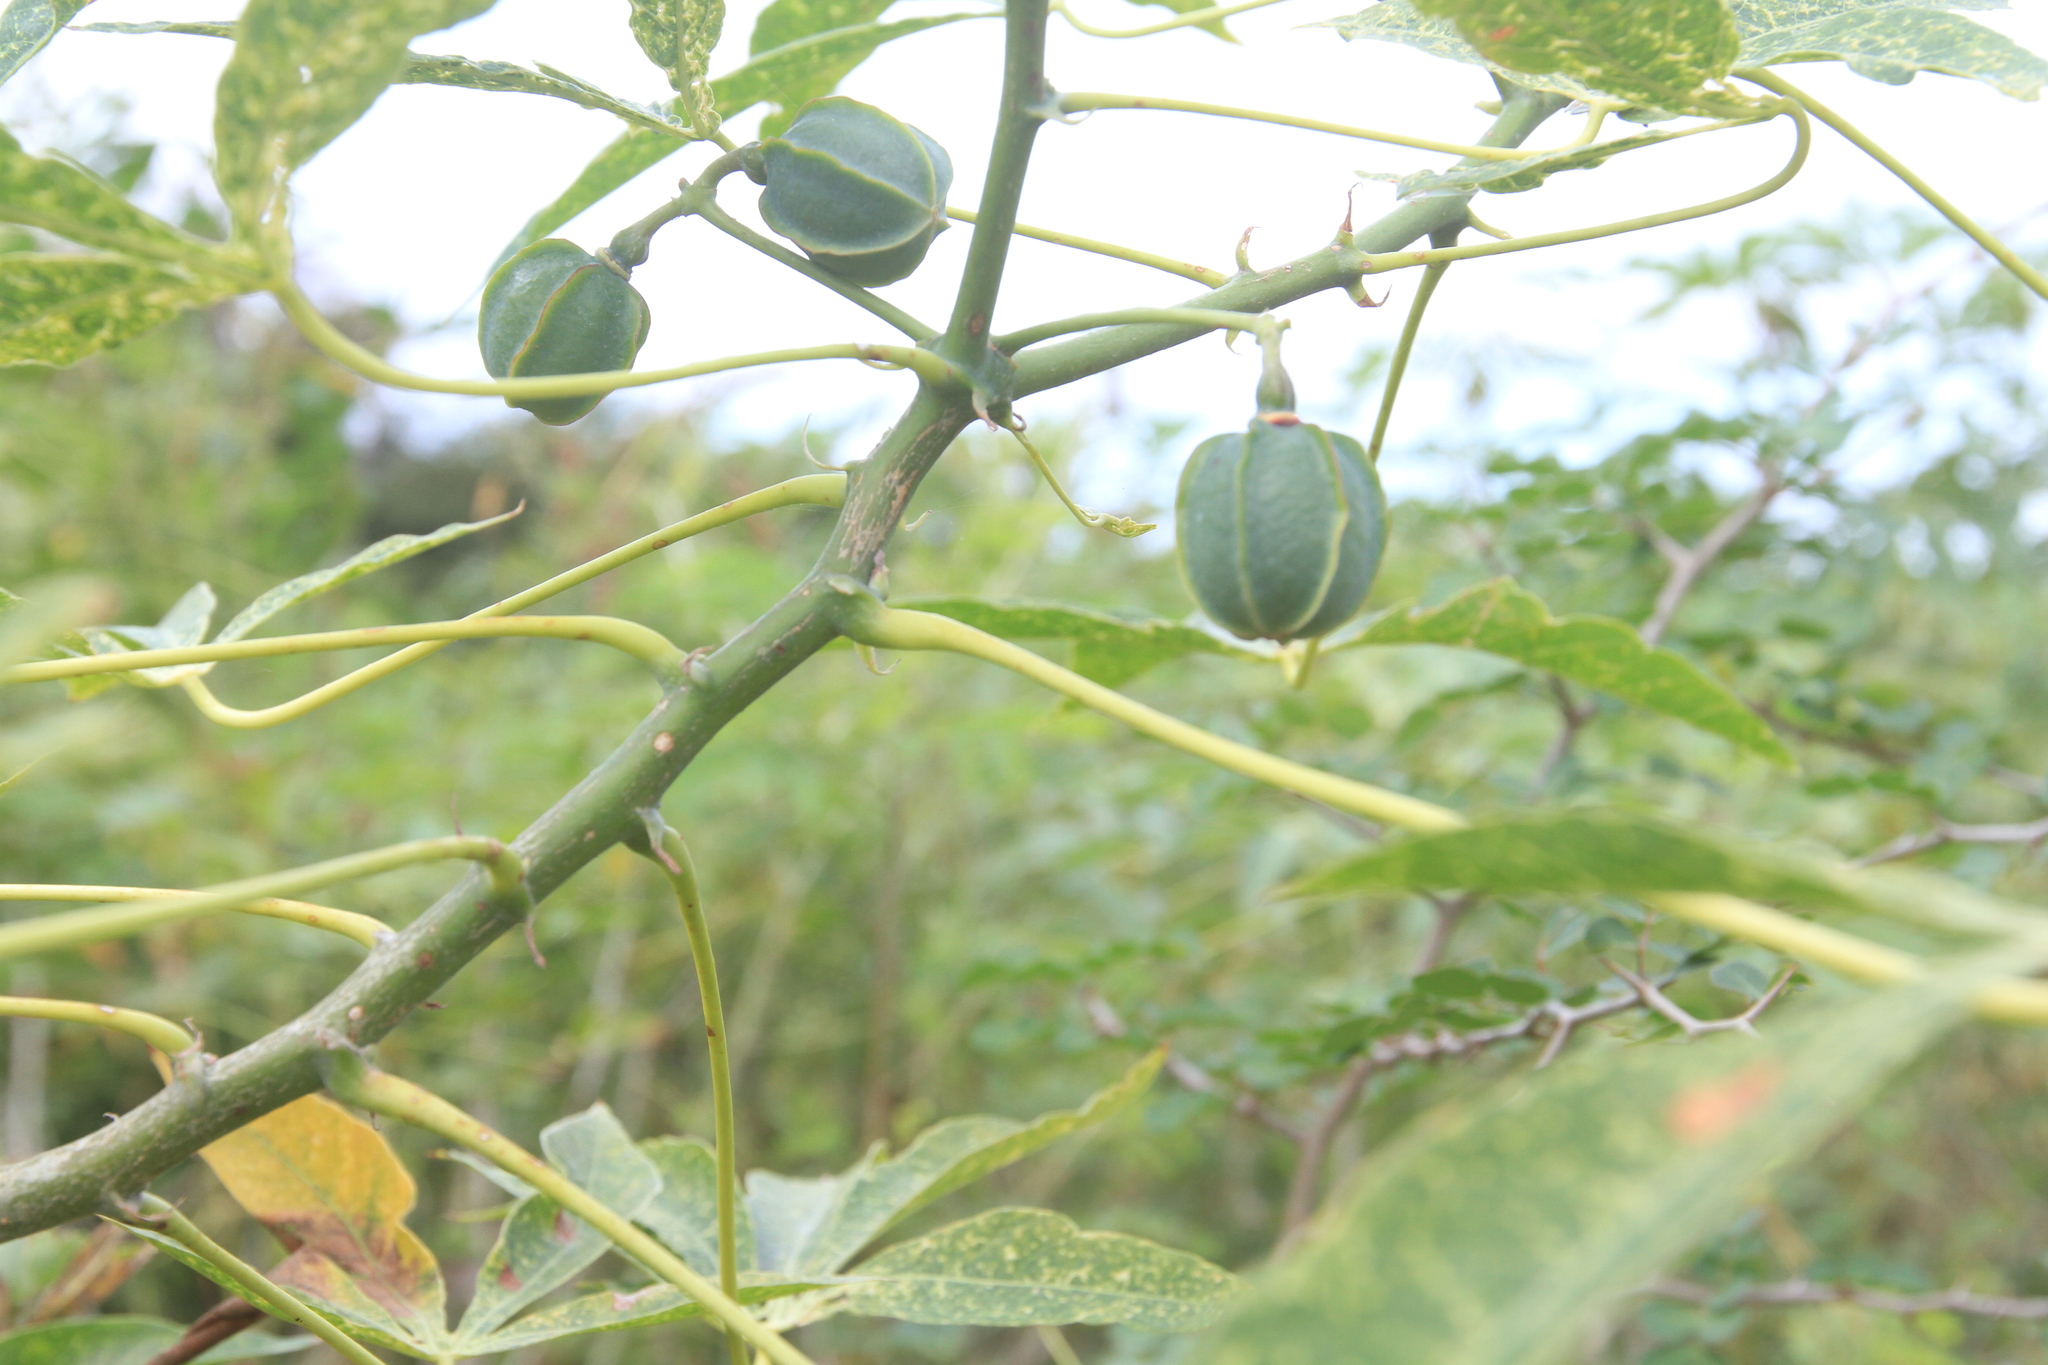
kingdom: Plantae
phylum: Tracheophyta
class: Magnoliopsida
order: Malpighiales
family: Euphorbiaceae
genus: Manihot
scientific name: Manihot esculenta
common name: Cassava
